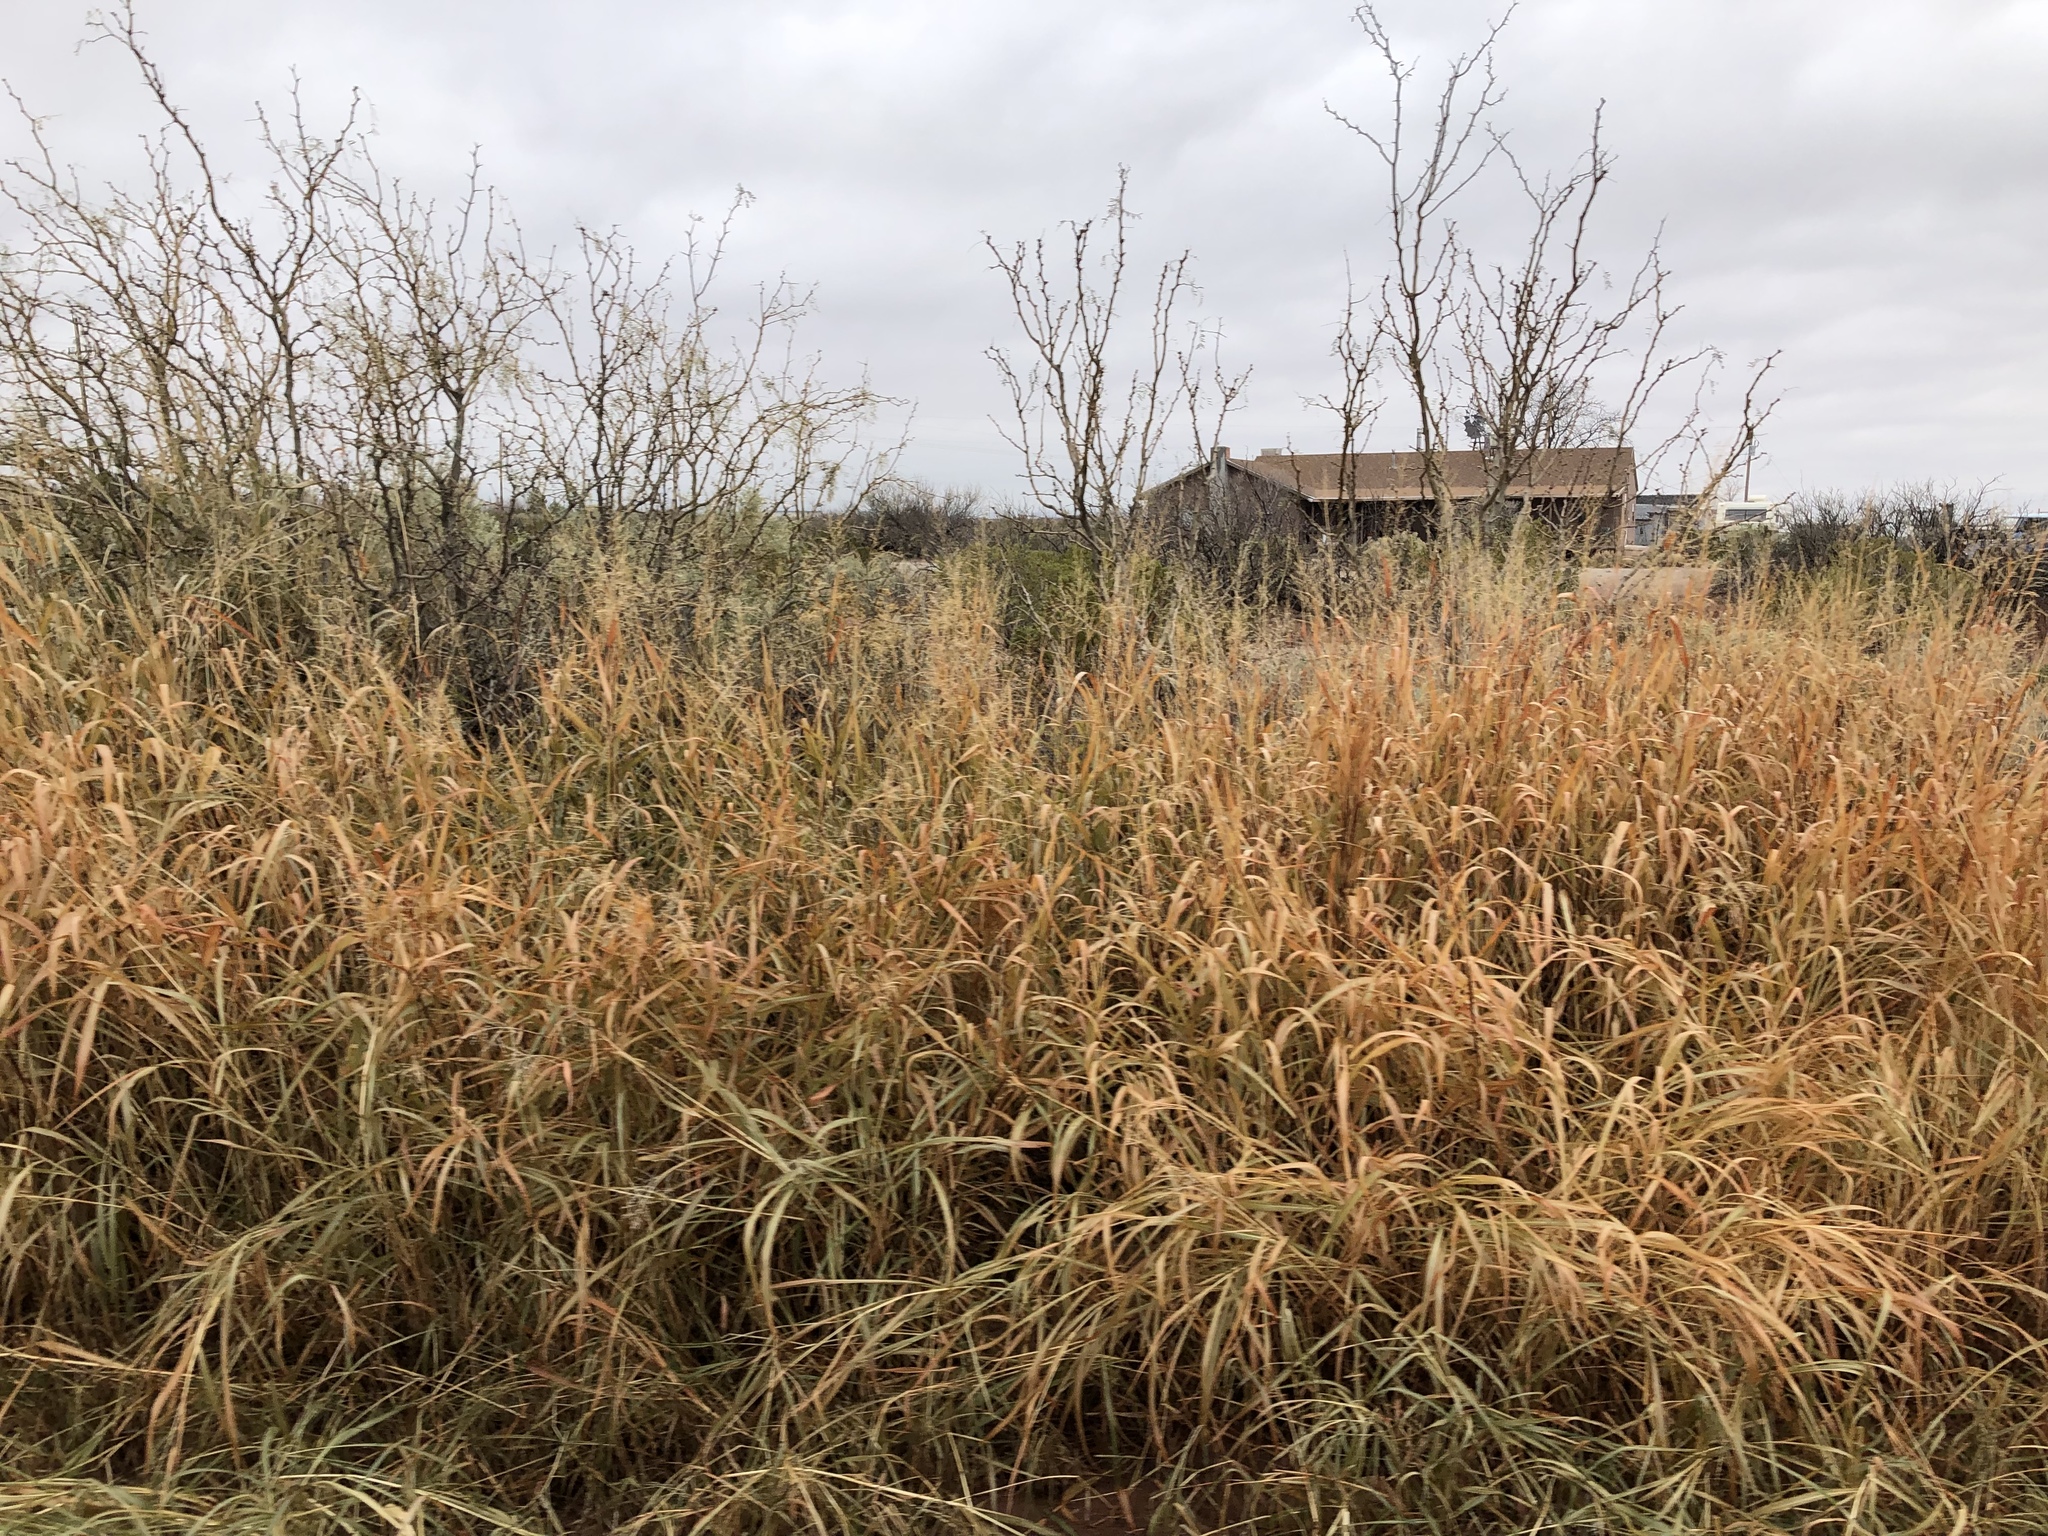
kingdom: Plantae
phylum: Tracheophyta
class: Liliopsida
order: Poales
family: Poaceae
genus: Sporobolus
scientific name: Sporobolus wrightii
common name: Big alkali sacaton
